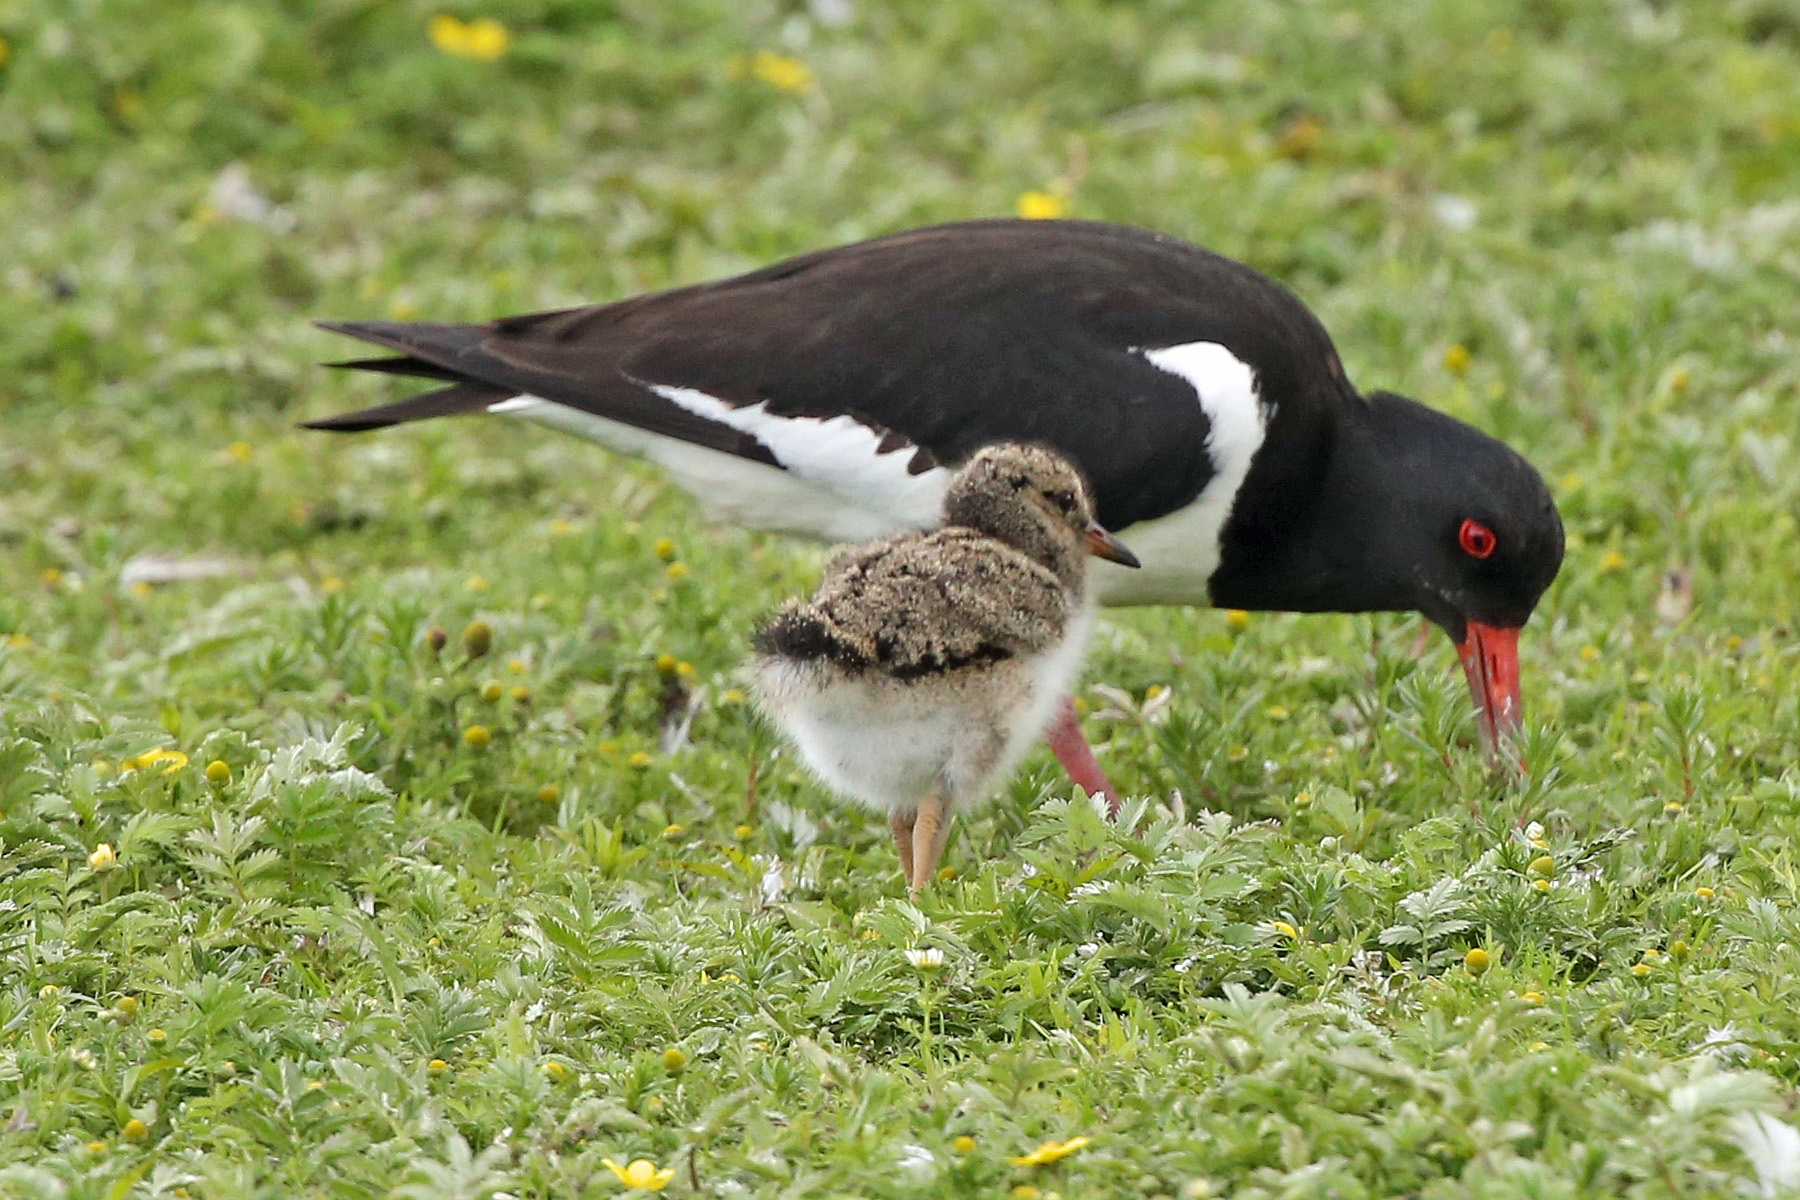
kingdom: Animalia
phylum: Chordata
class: Aves
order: Charadriiformes
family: Haematopodidae
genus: Haematopus
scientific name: Haematopus ostralegus
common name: Eurasian oystercatcher
